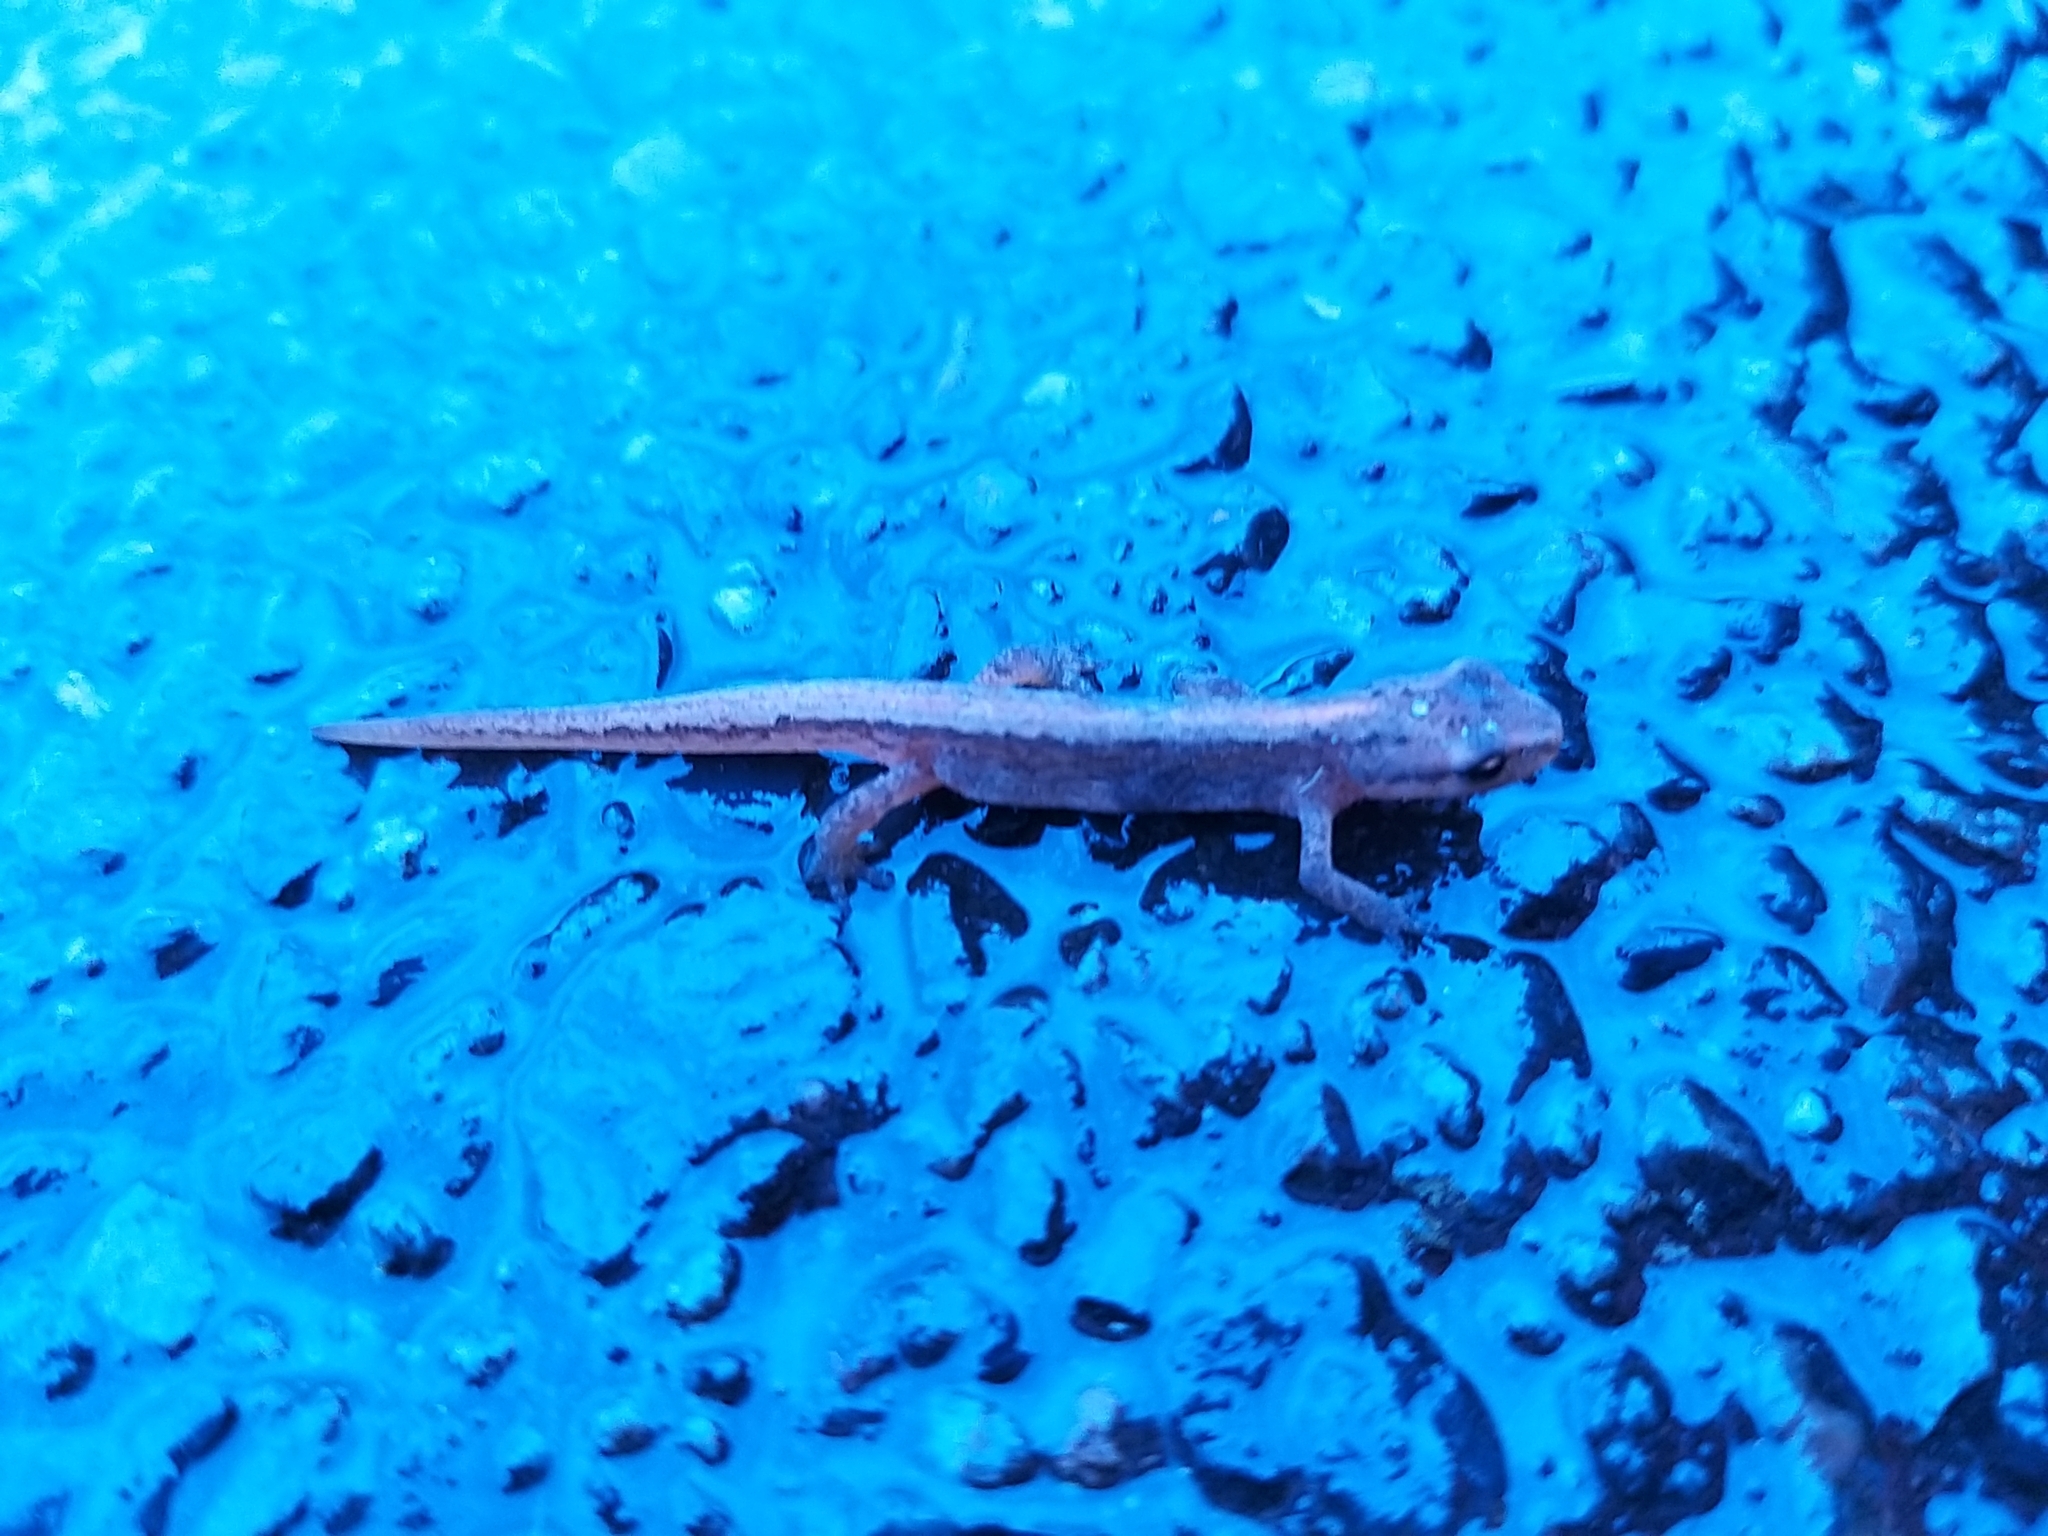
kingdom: Animalia
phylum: Chordata
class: Amphibia
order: Caudata
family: Salamandridae
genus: Lissotriton
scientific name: Lissotriton vulgaris
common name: Smooth newt
